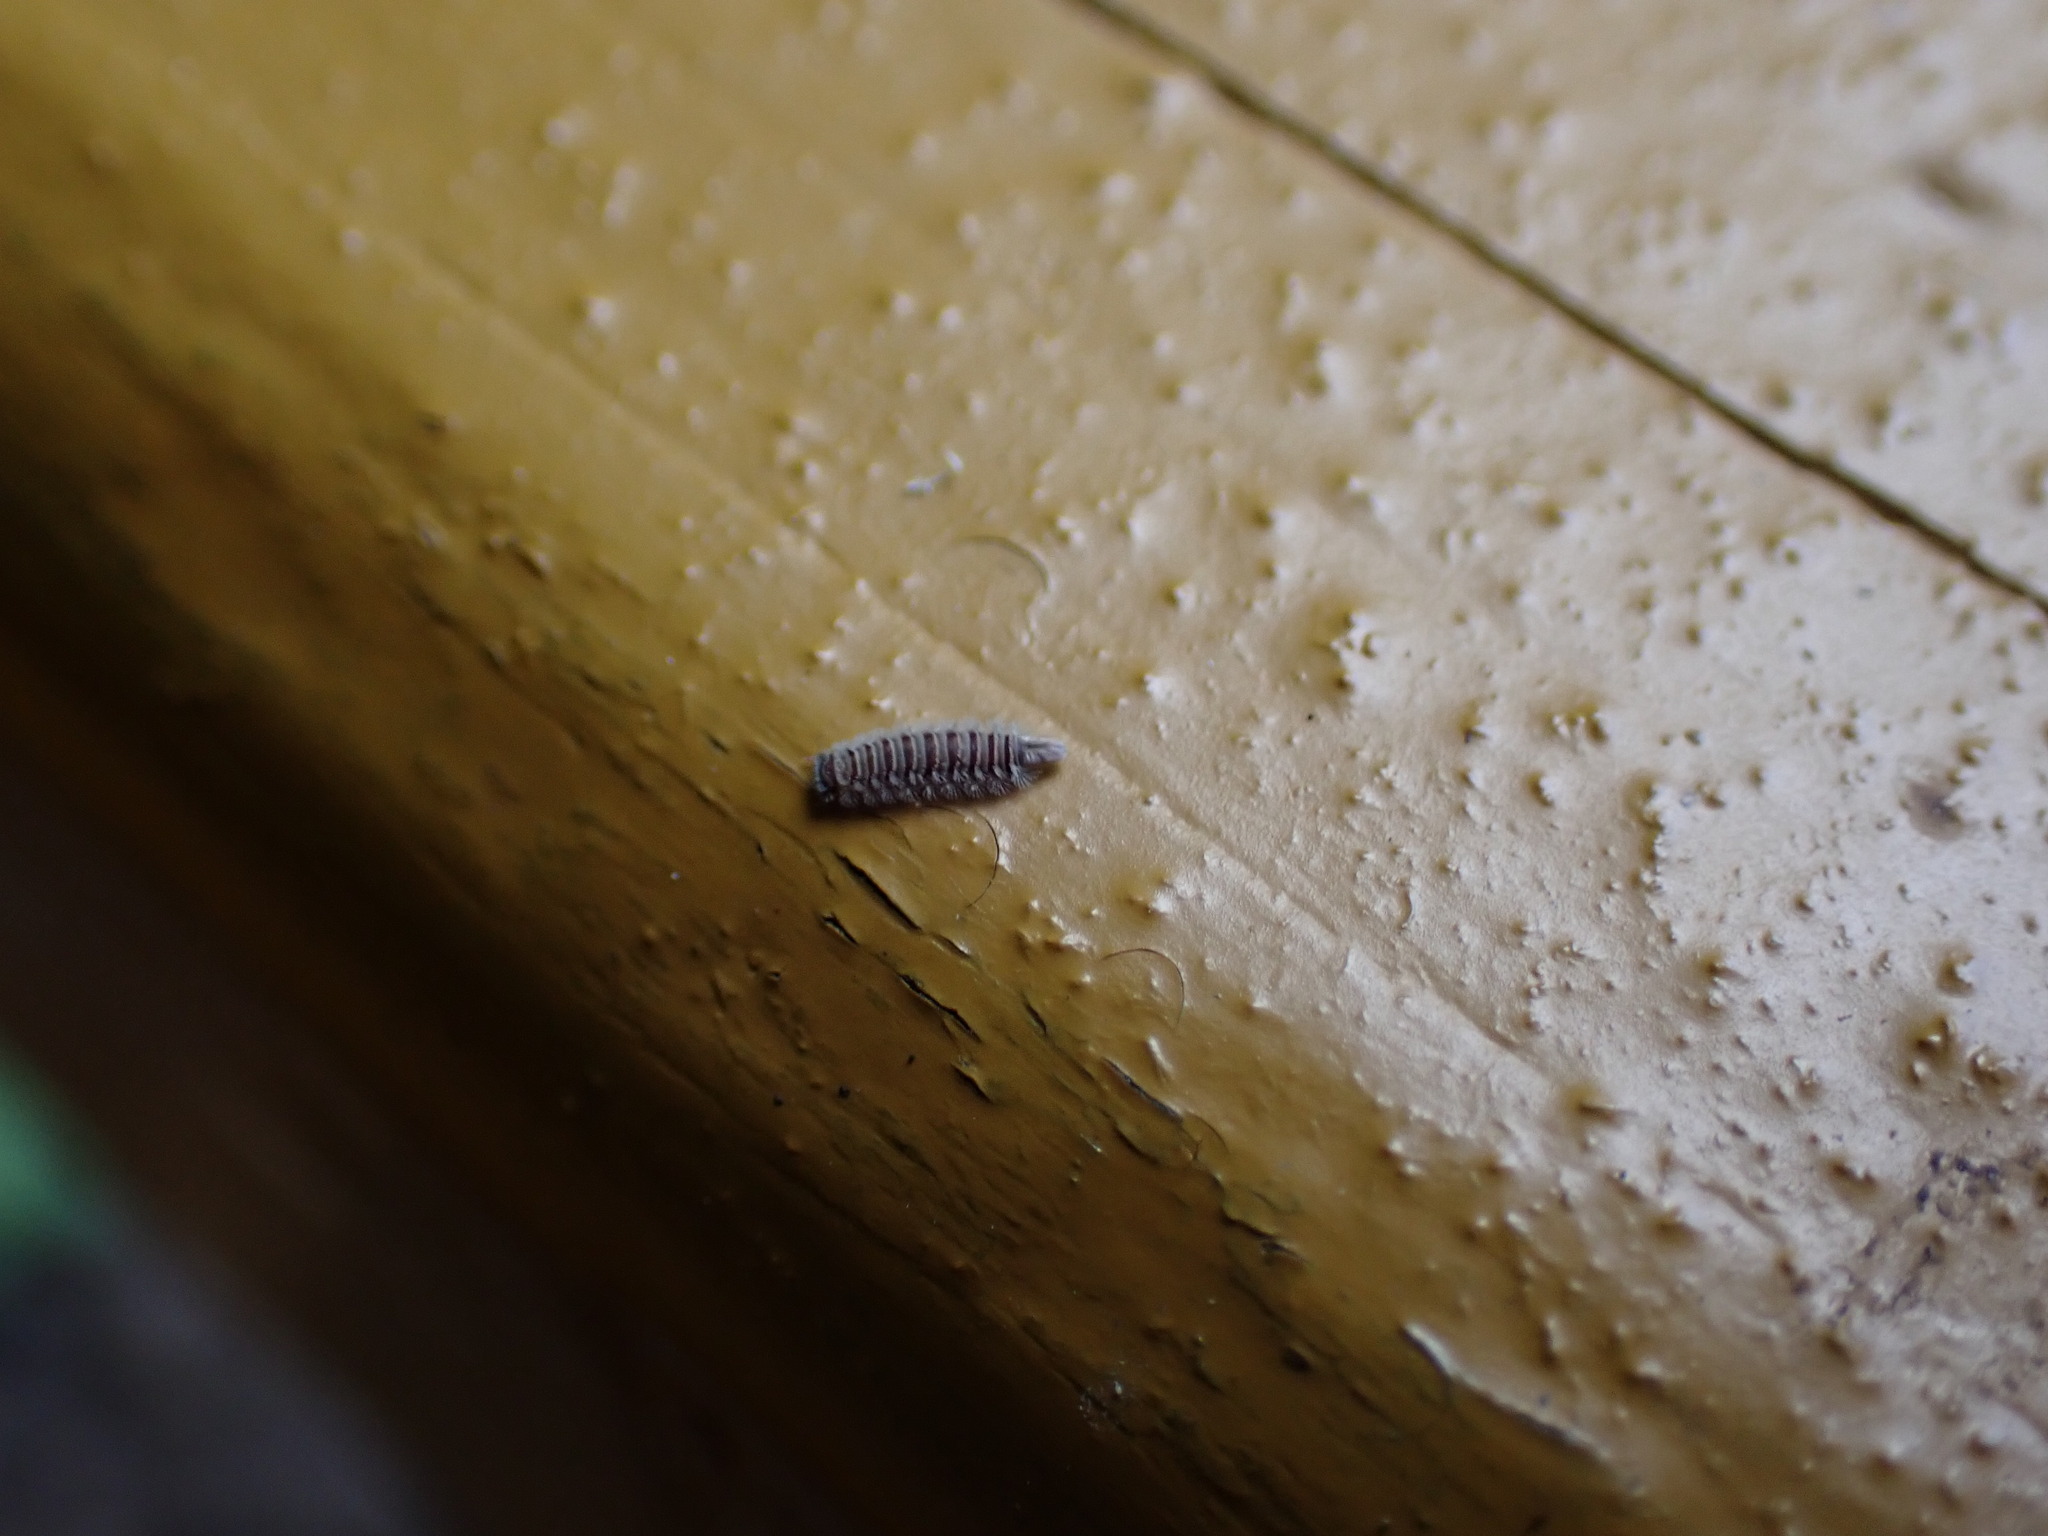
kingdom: Animalia
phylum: Arthropoda
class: Diplopoda
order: Polyxenida
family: Polyxenidae
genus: Polyxenus
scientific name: Polyxenus lagurus
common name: Bristly millipede
